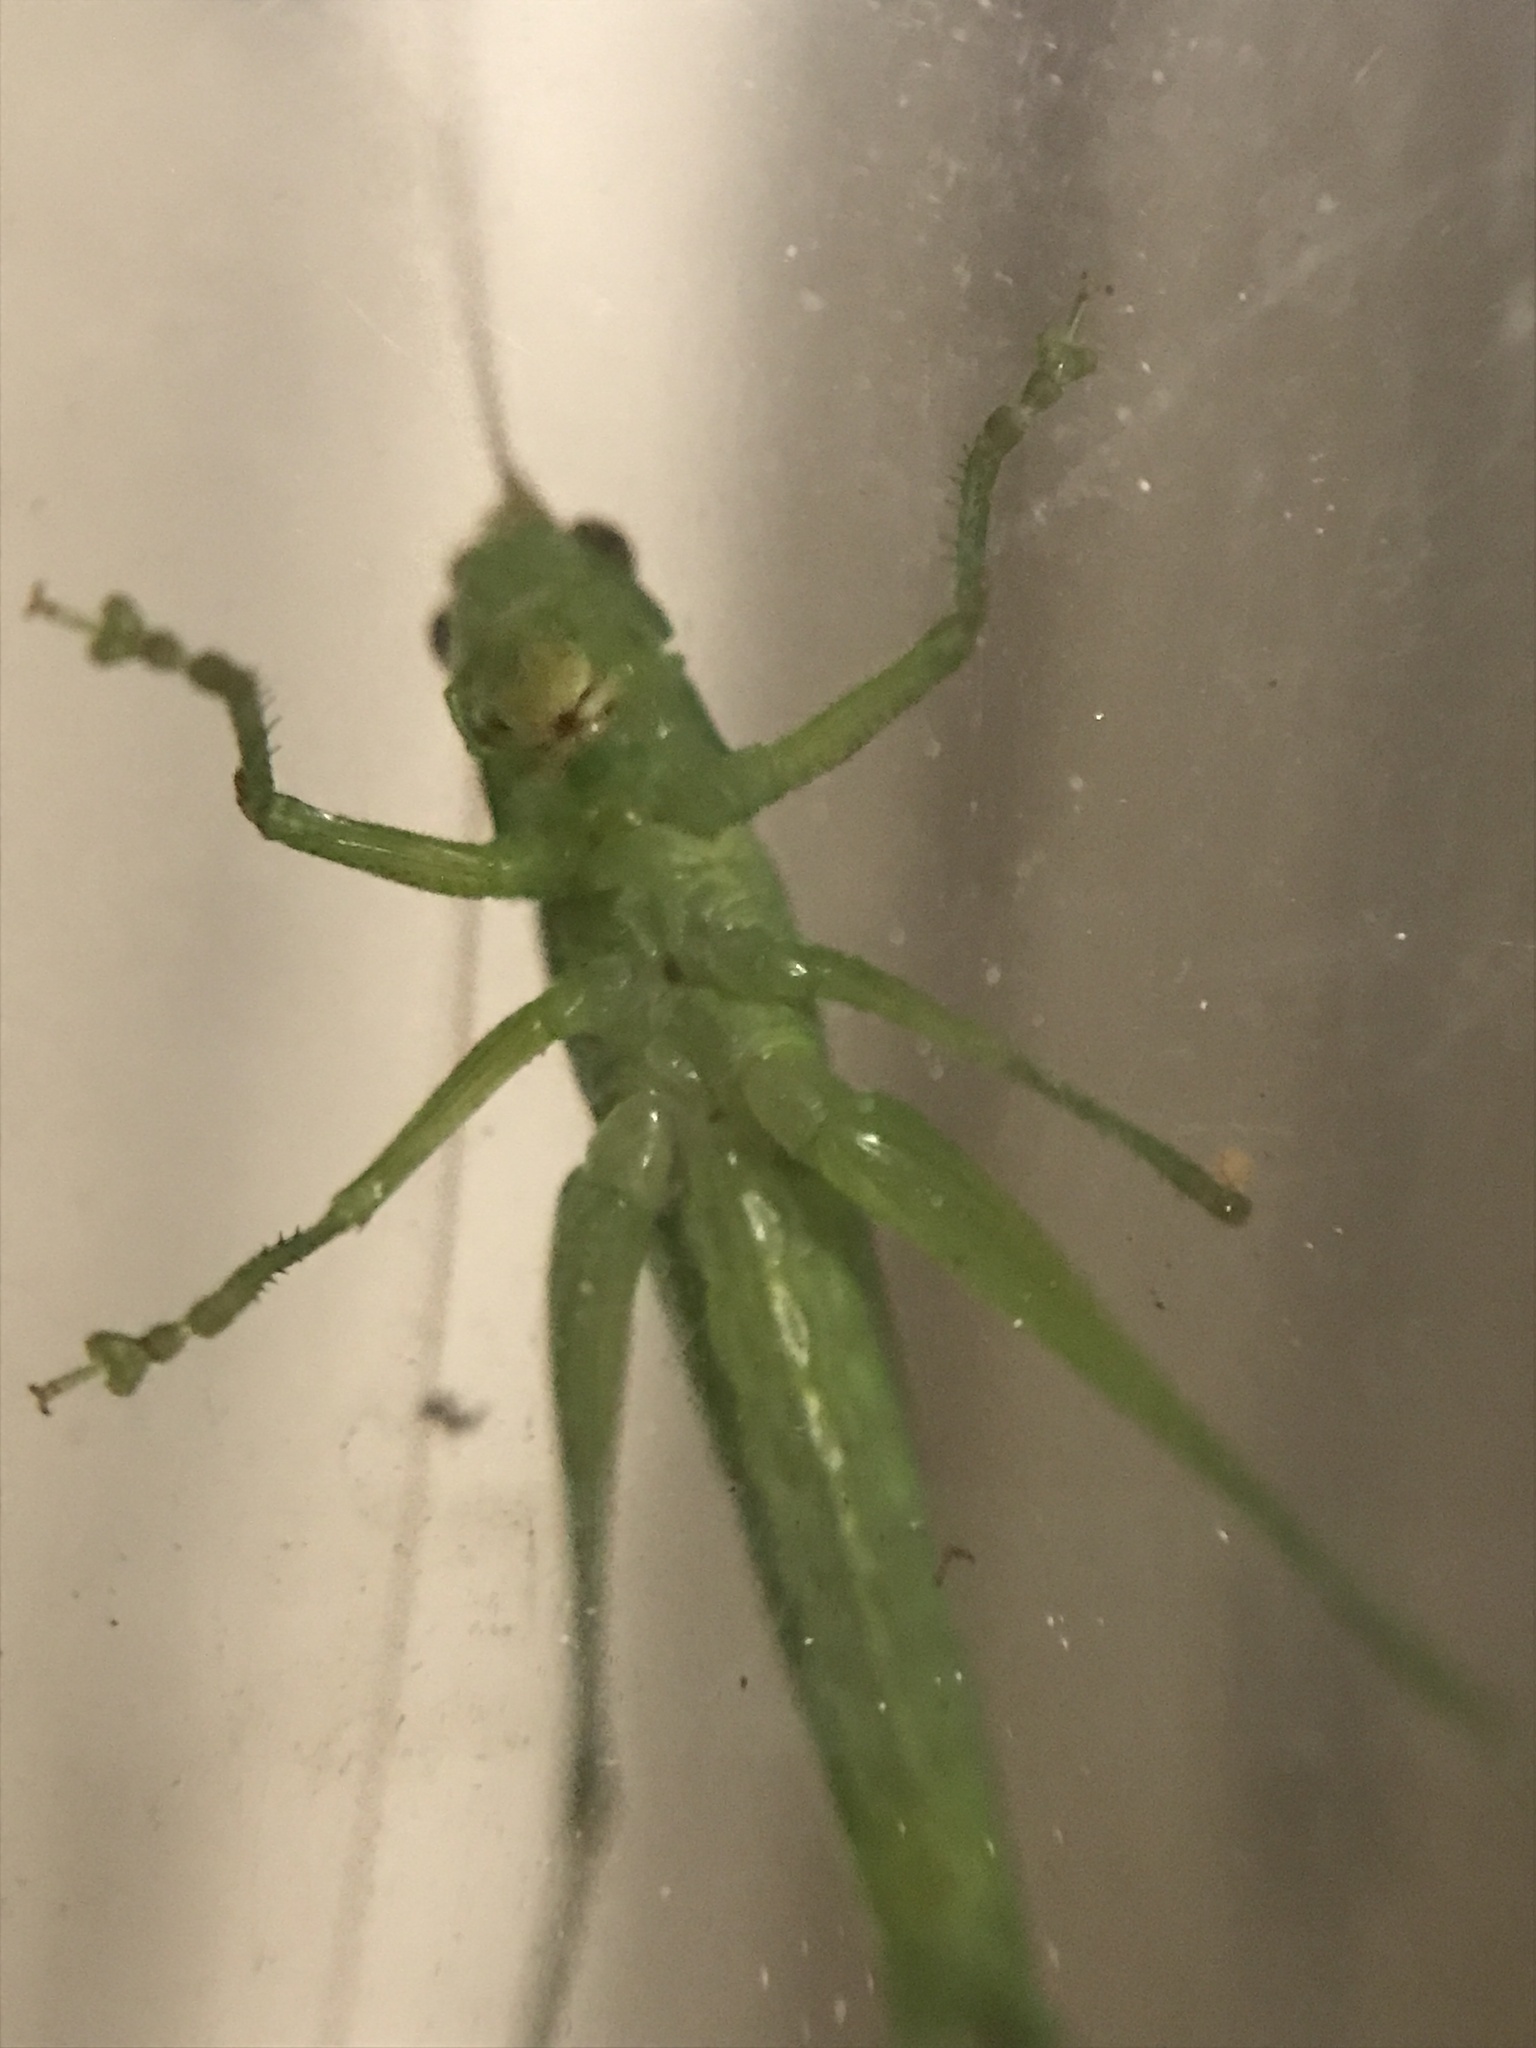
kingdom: Animalia
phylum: Arthropoda
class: Insecta
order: Orthoptera
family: Tettigoniidae
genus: Conocephalus
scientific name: Conocephalus longipes
